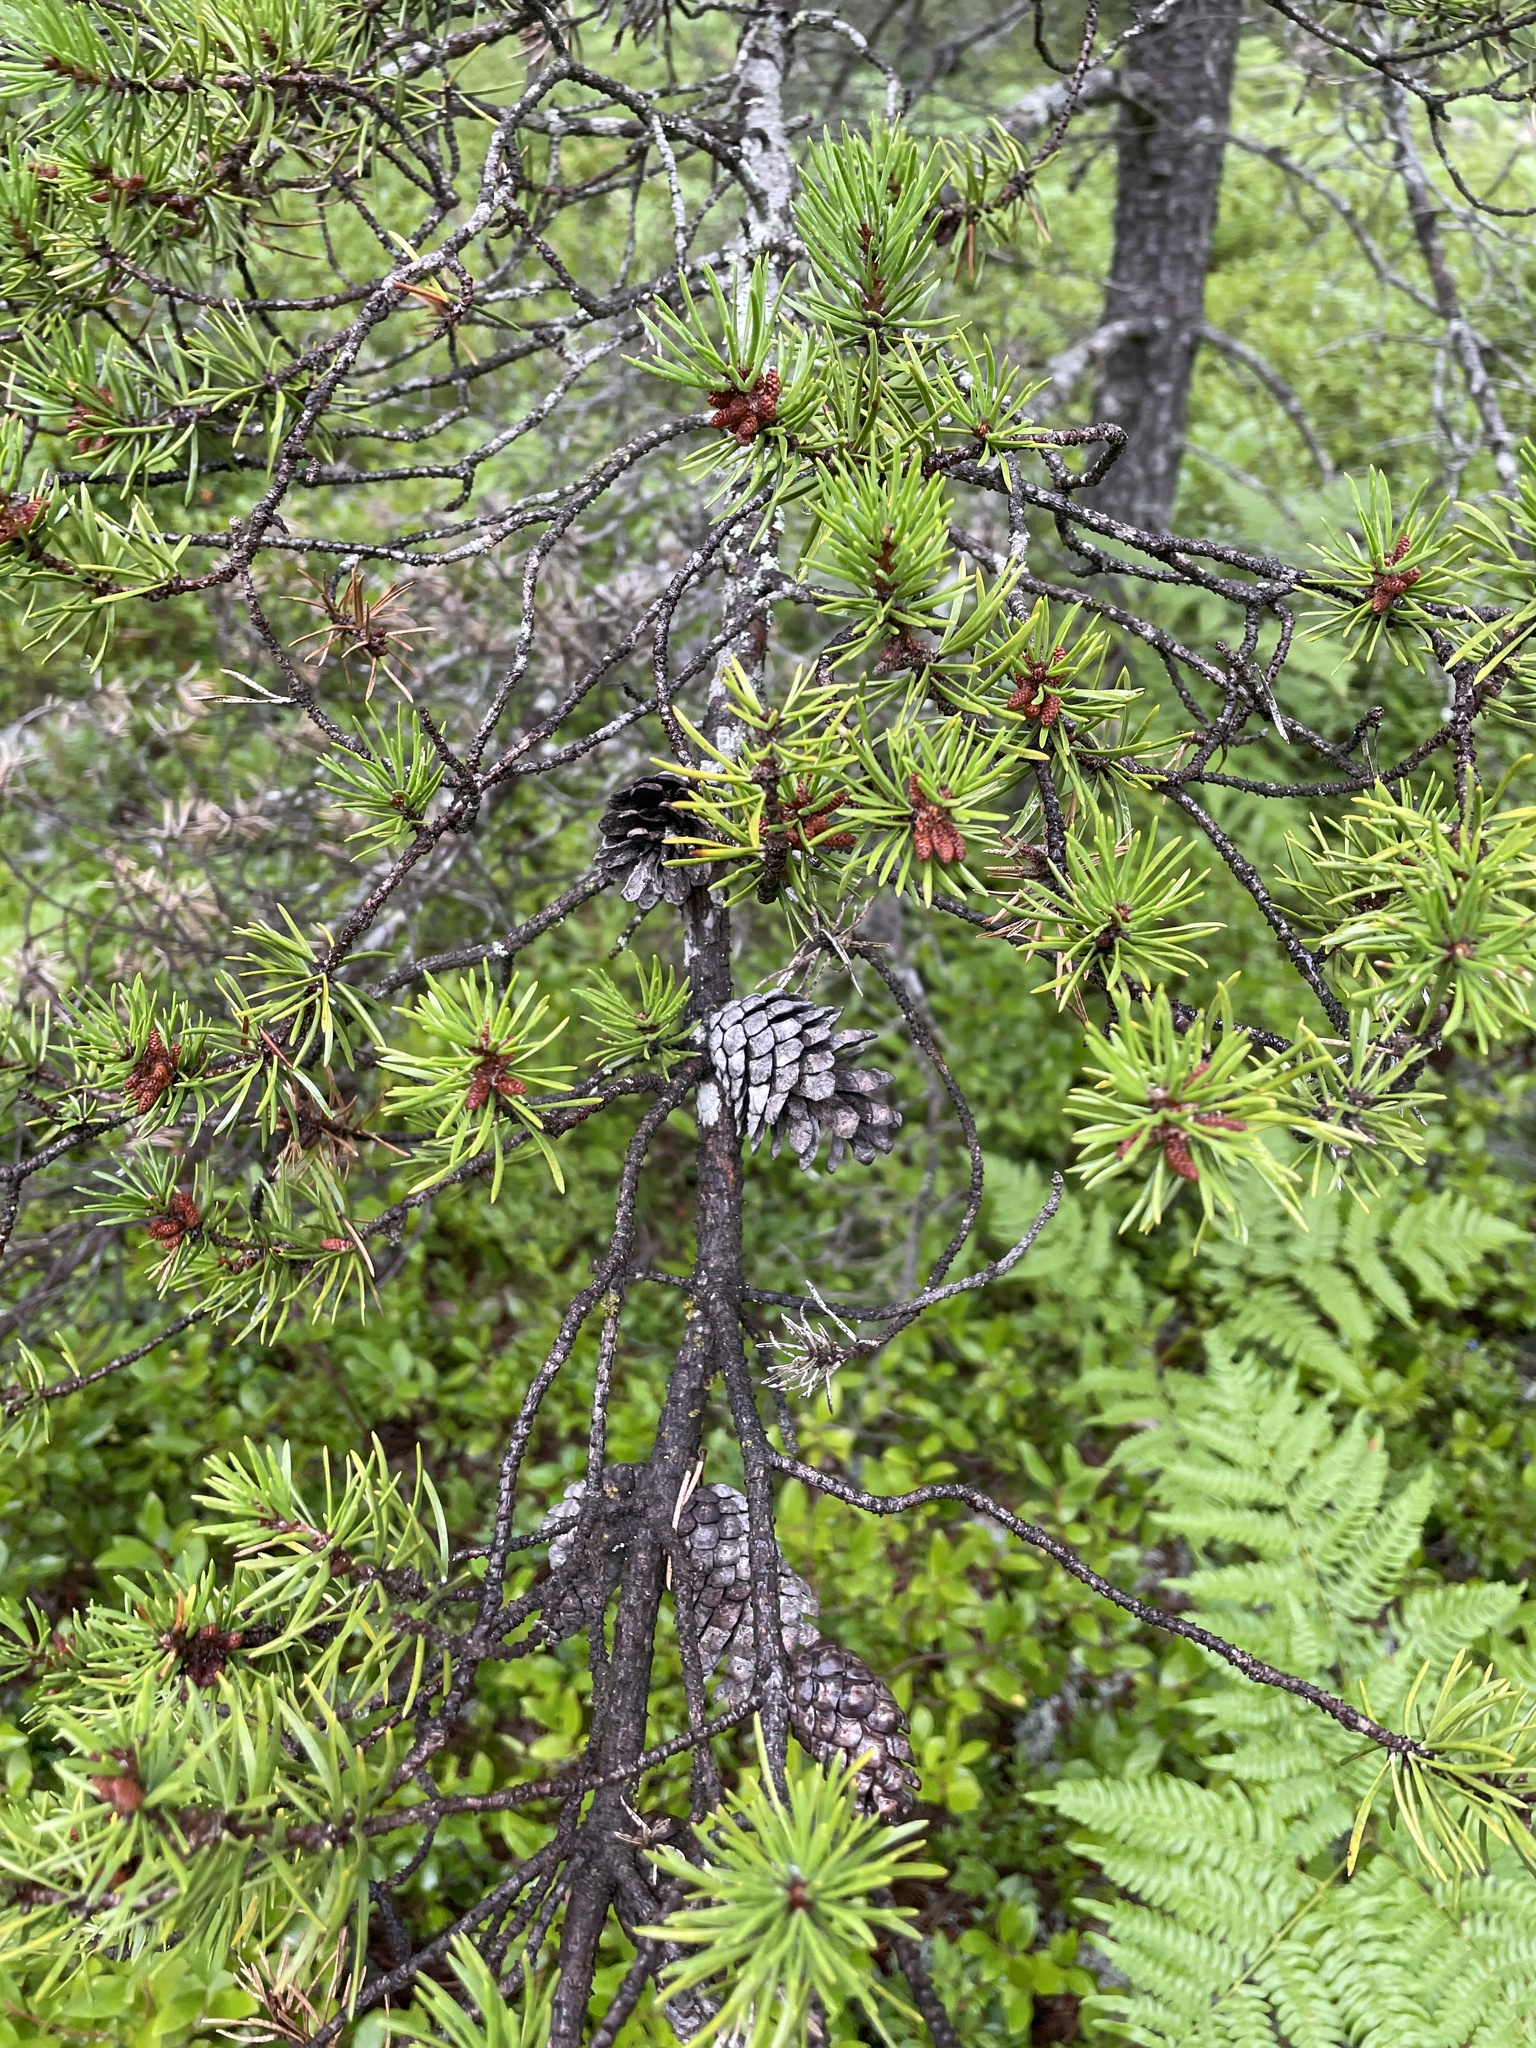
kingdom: Plantae
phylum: Tracheophyta
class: Pinopsida
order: Pinales
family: Pinaceae
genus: Pinus
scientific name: Pinus banksiana
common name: Jack pine
